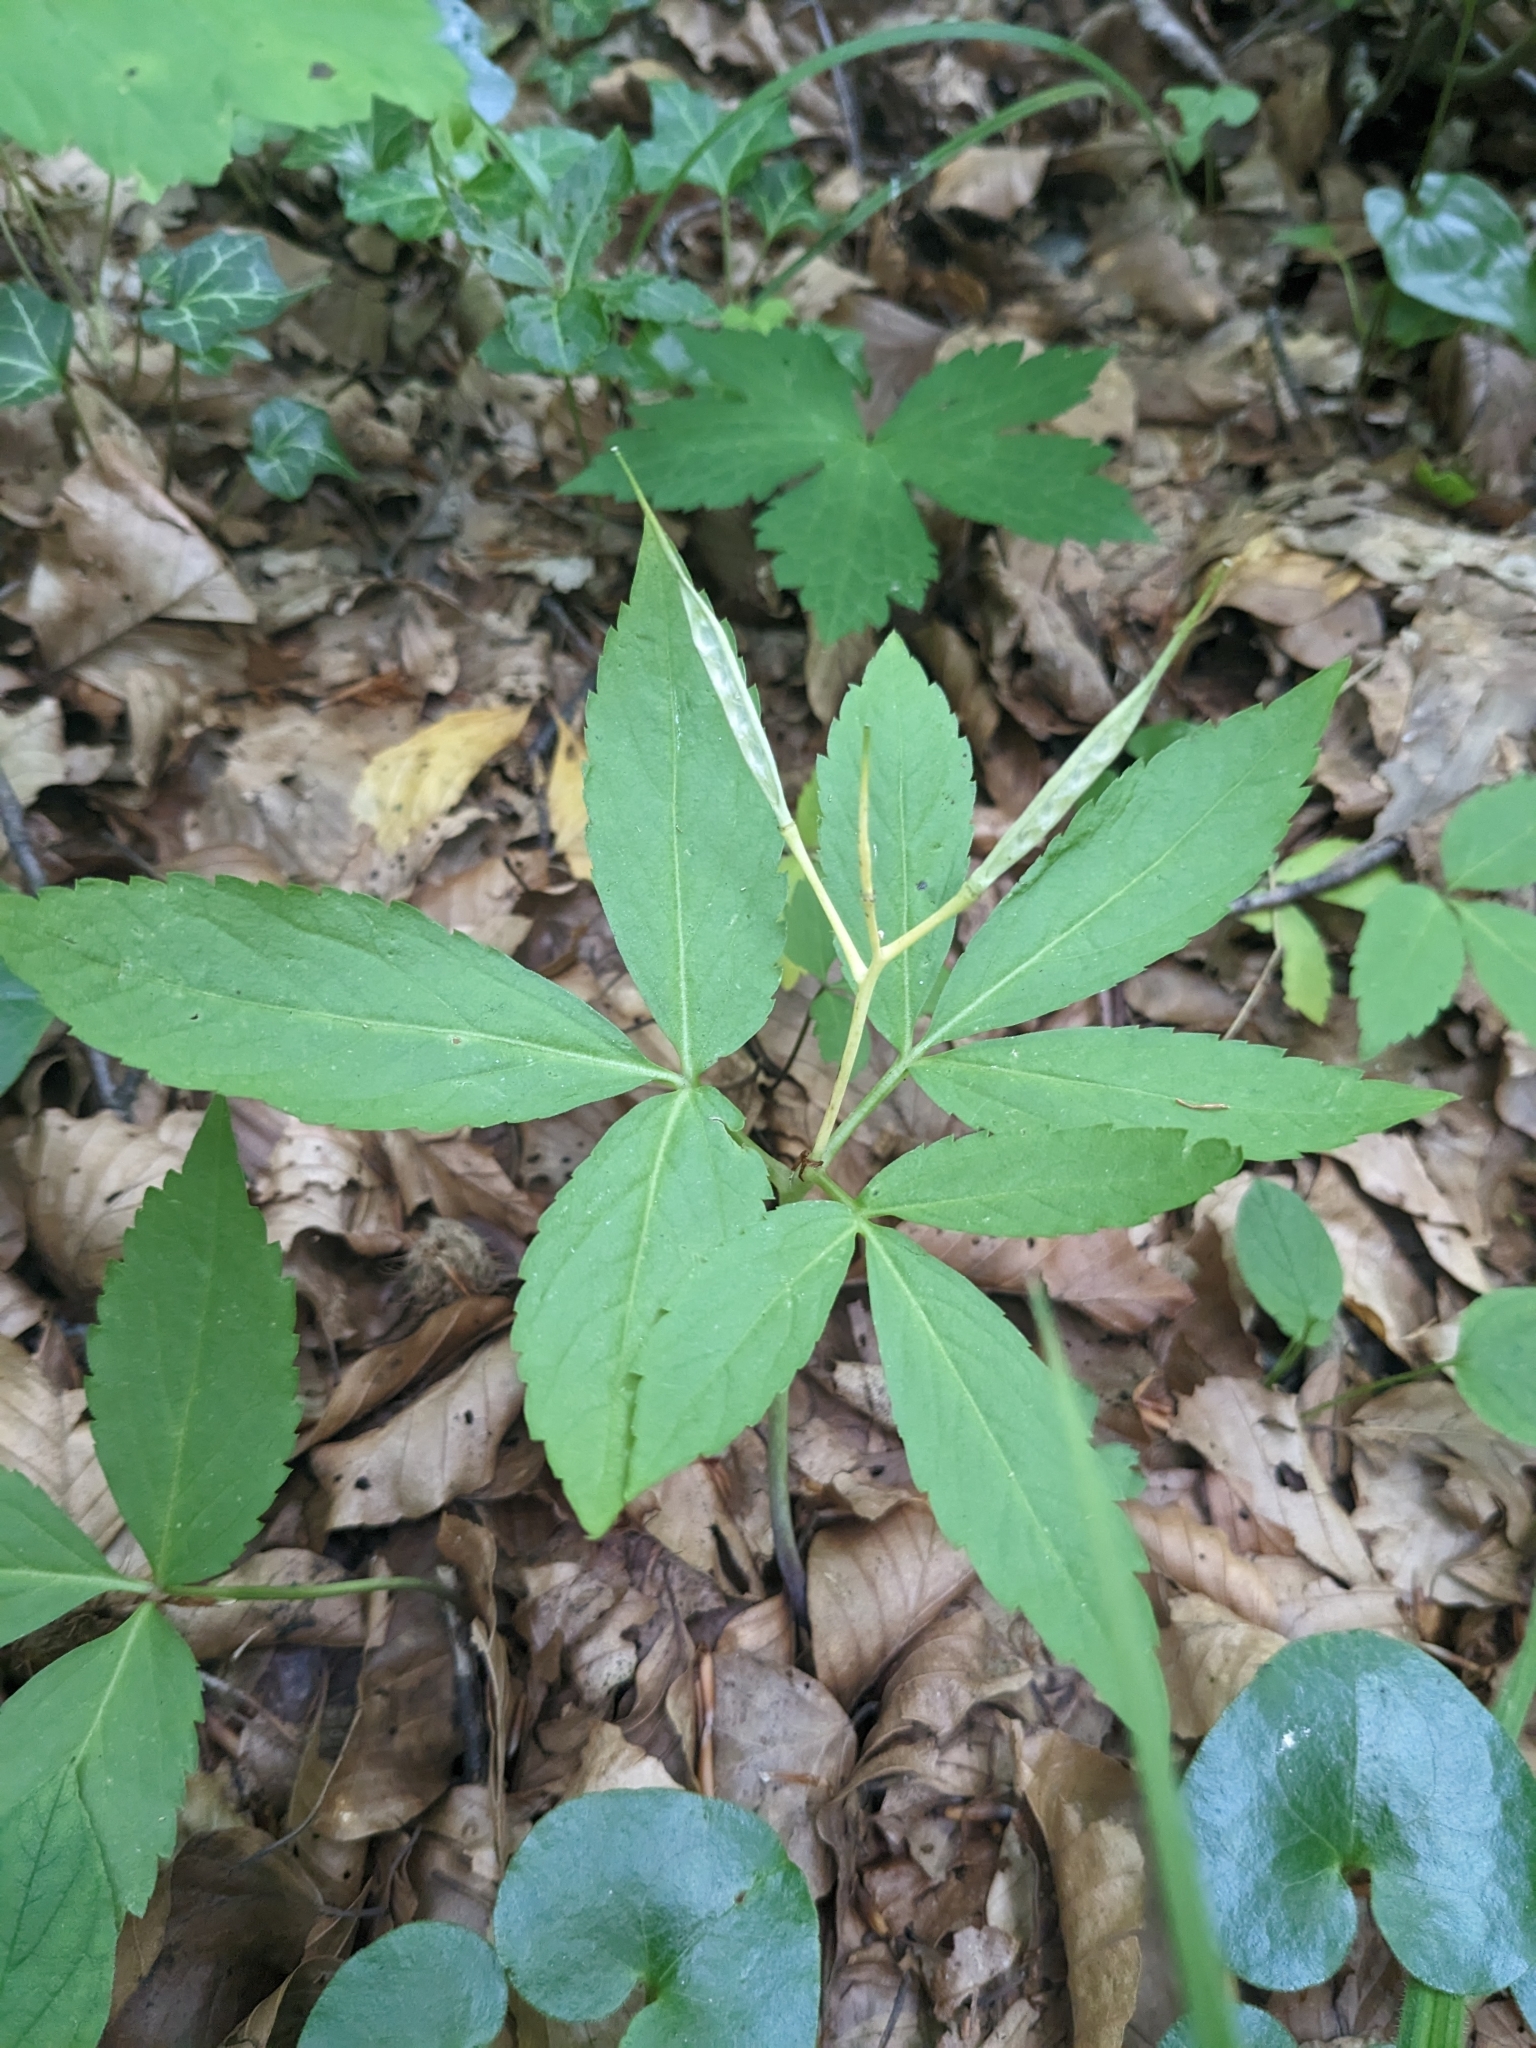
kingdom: Plantae
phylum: Tracheophyta
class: Magnoliopsida
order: Brassicales
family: Brassicaceae
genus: Cardamine
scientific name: Cardamine enneaphyllos
